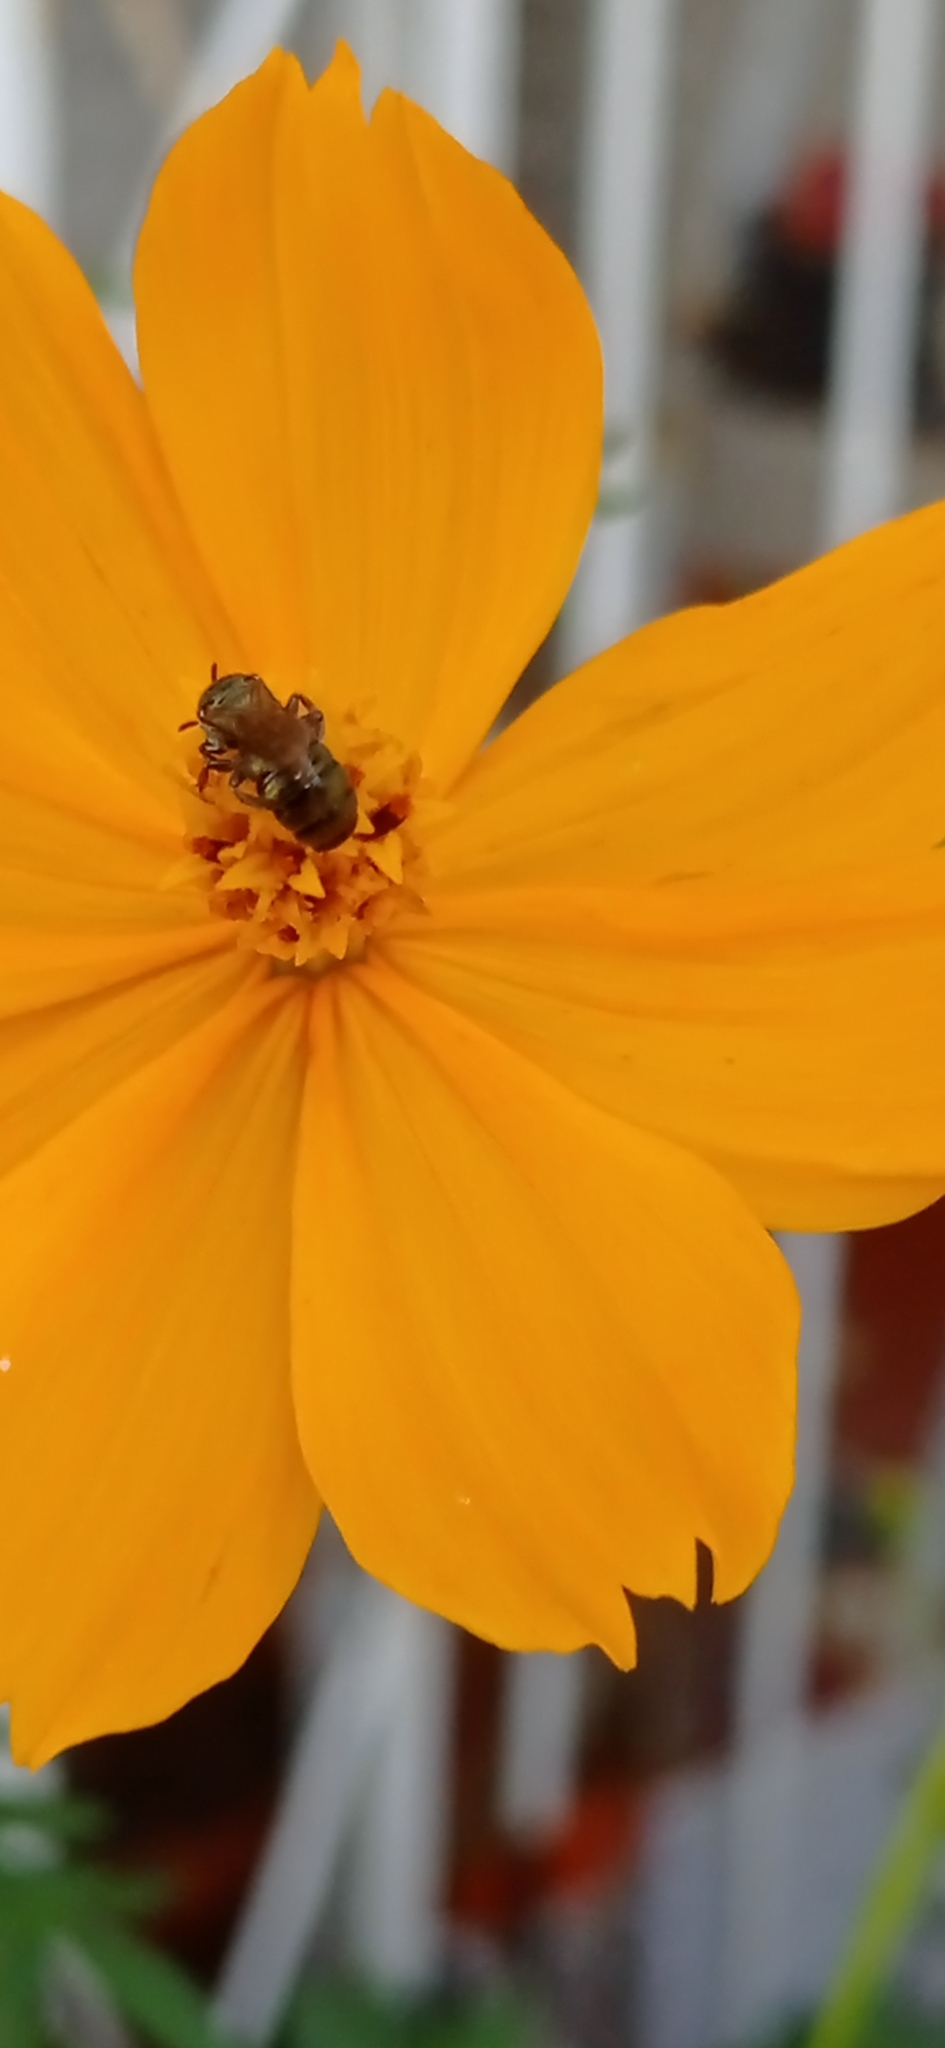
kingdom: Animalia
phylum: Arthropoda
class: Insecta
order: Hymenoptera
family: Apidae
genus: Ceratina
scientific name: Ceratina
